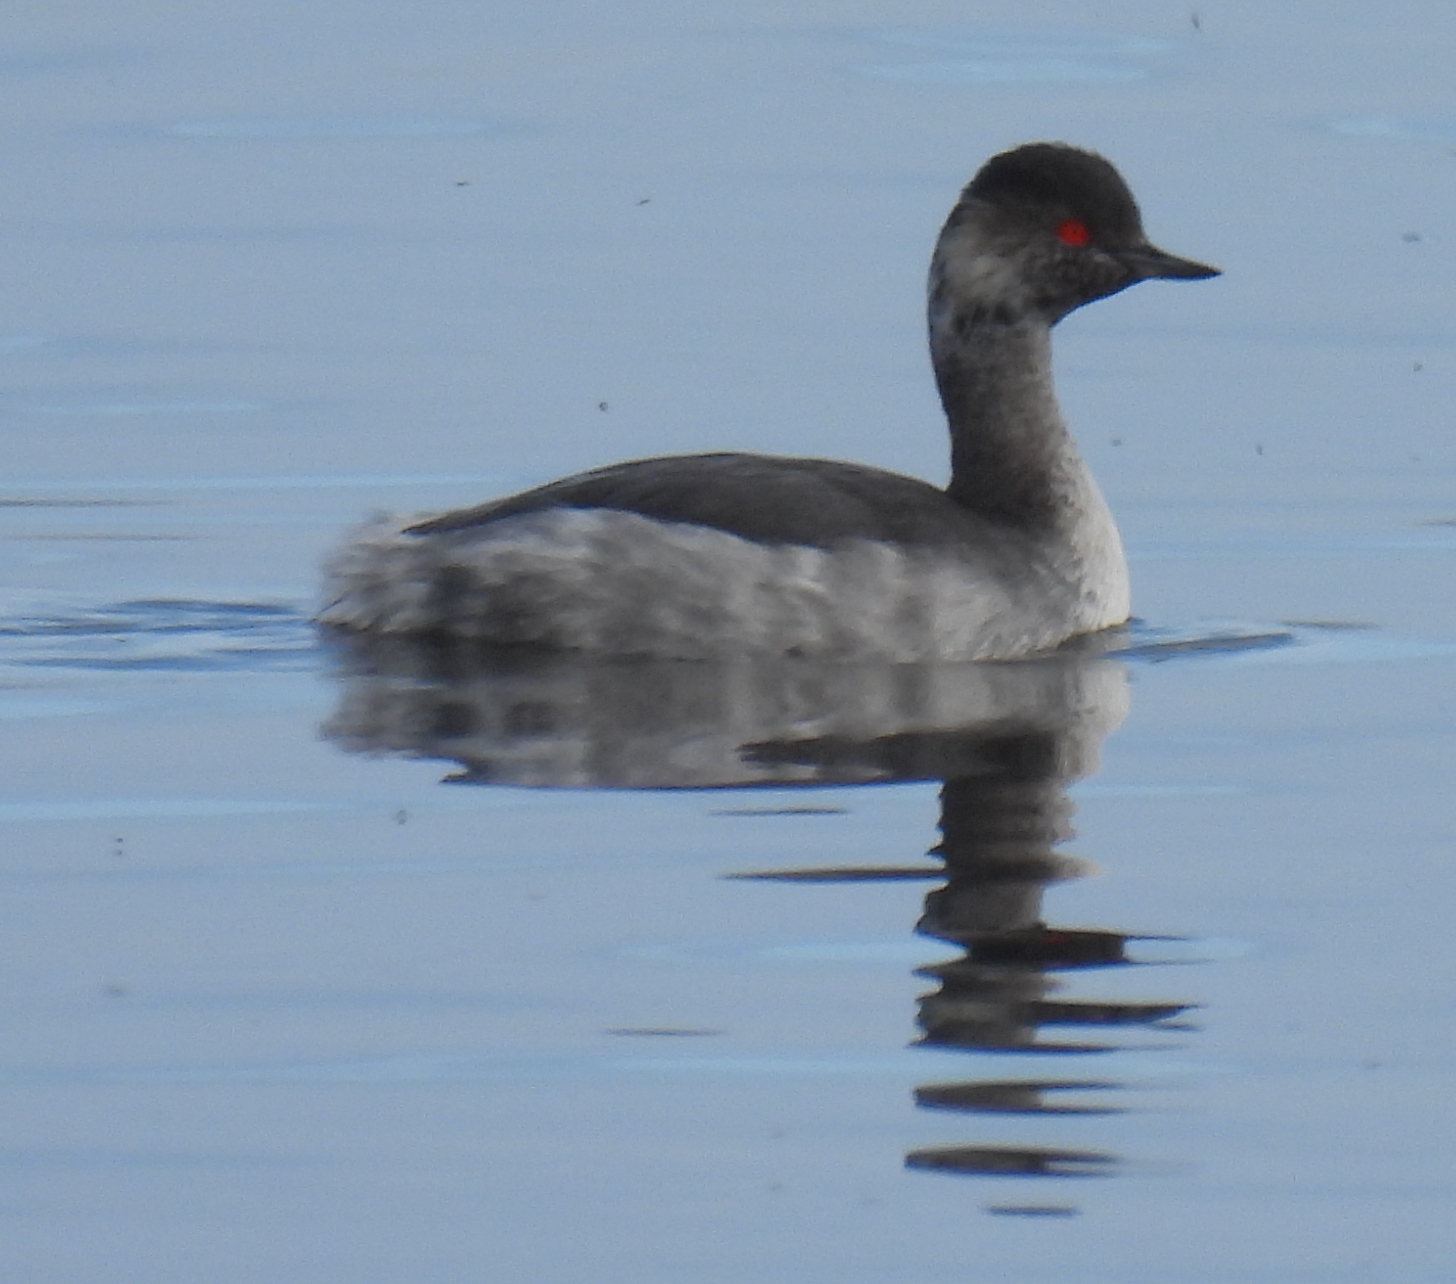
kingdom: Animalia
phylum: Chordata
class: Aves
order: Podicipediformes
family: Podicipedidae
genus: Podiceps
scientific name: Podiceps nigricollis
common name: Black-necked grebe
